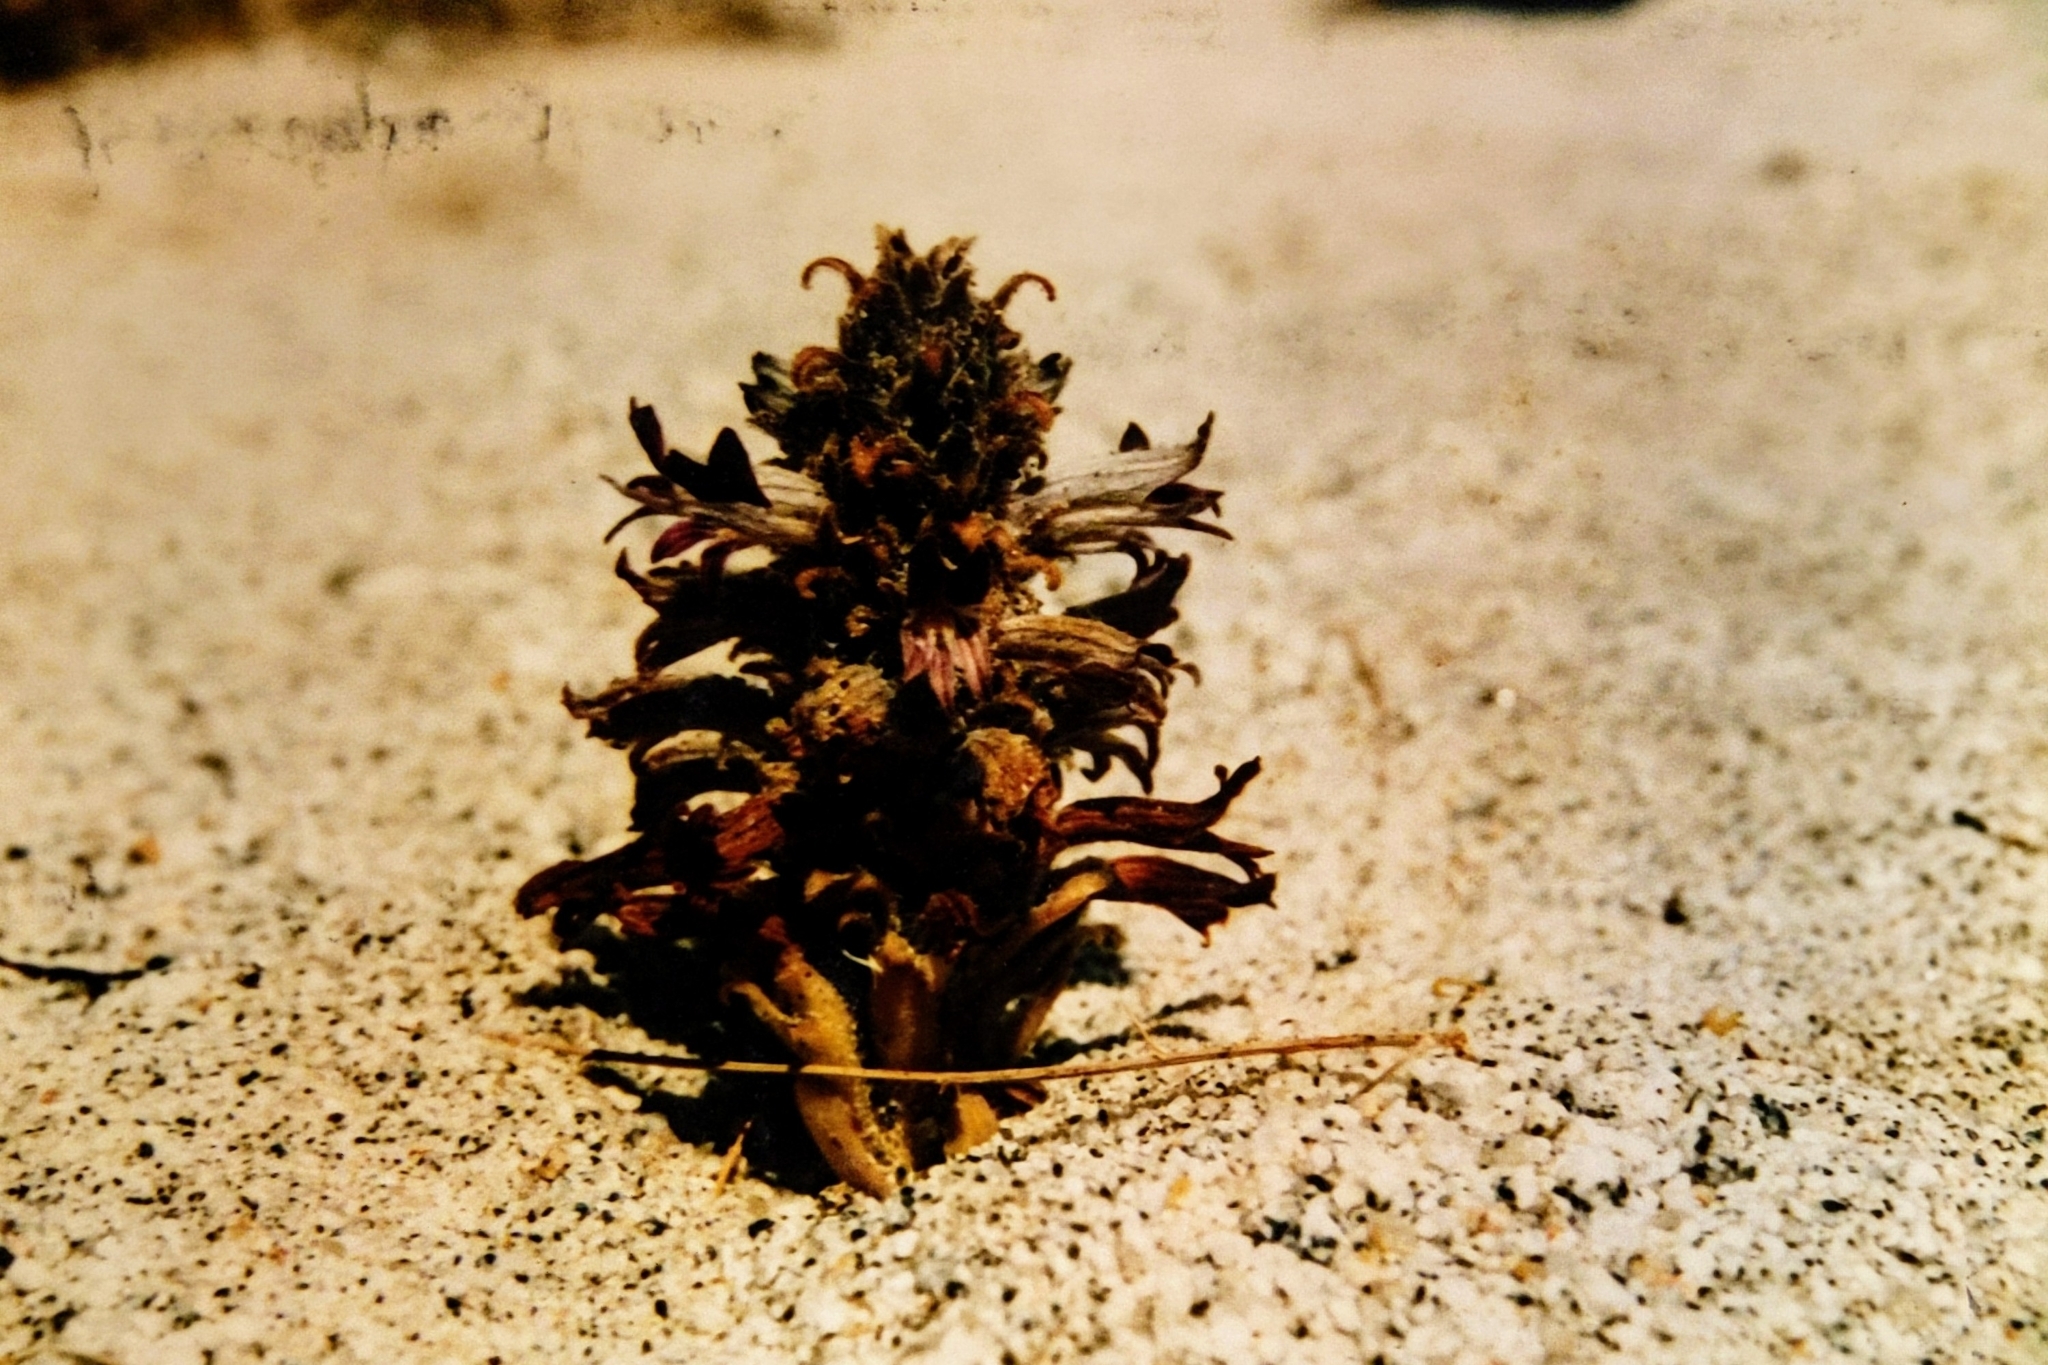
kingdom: Plantae
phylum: Tracheophyta
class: Magnoliopsida
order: Lamiales
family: Orobanchaceae
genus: Aphyllon
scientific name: Aphyllon cooperi
